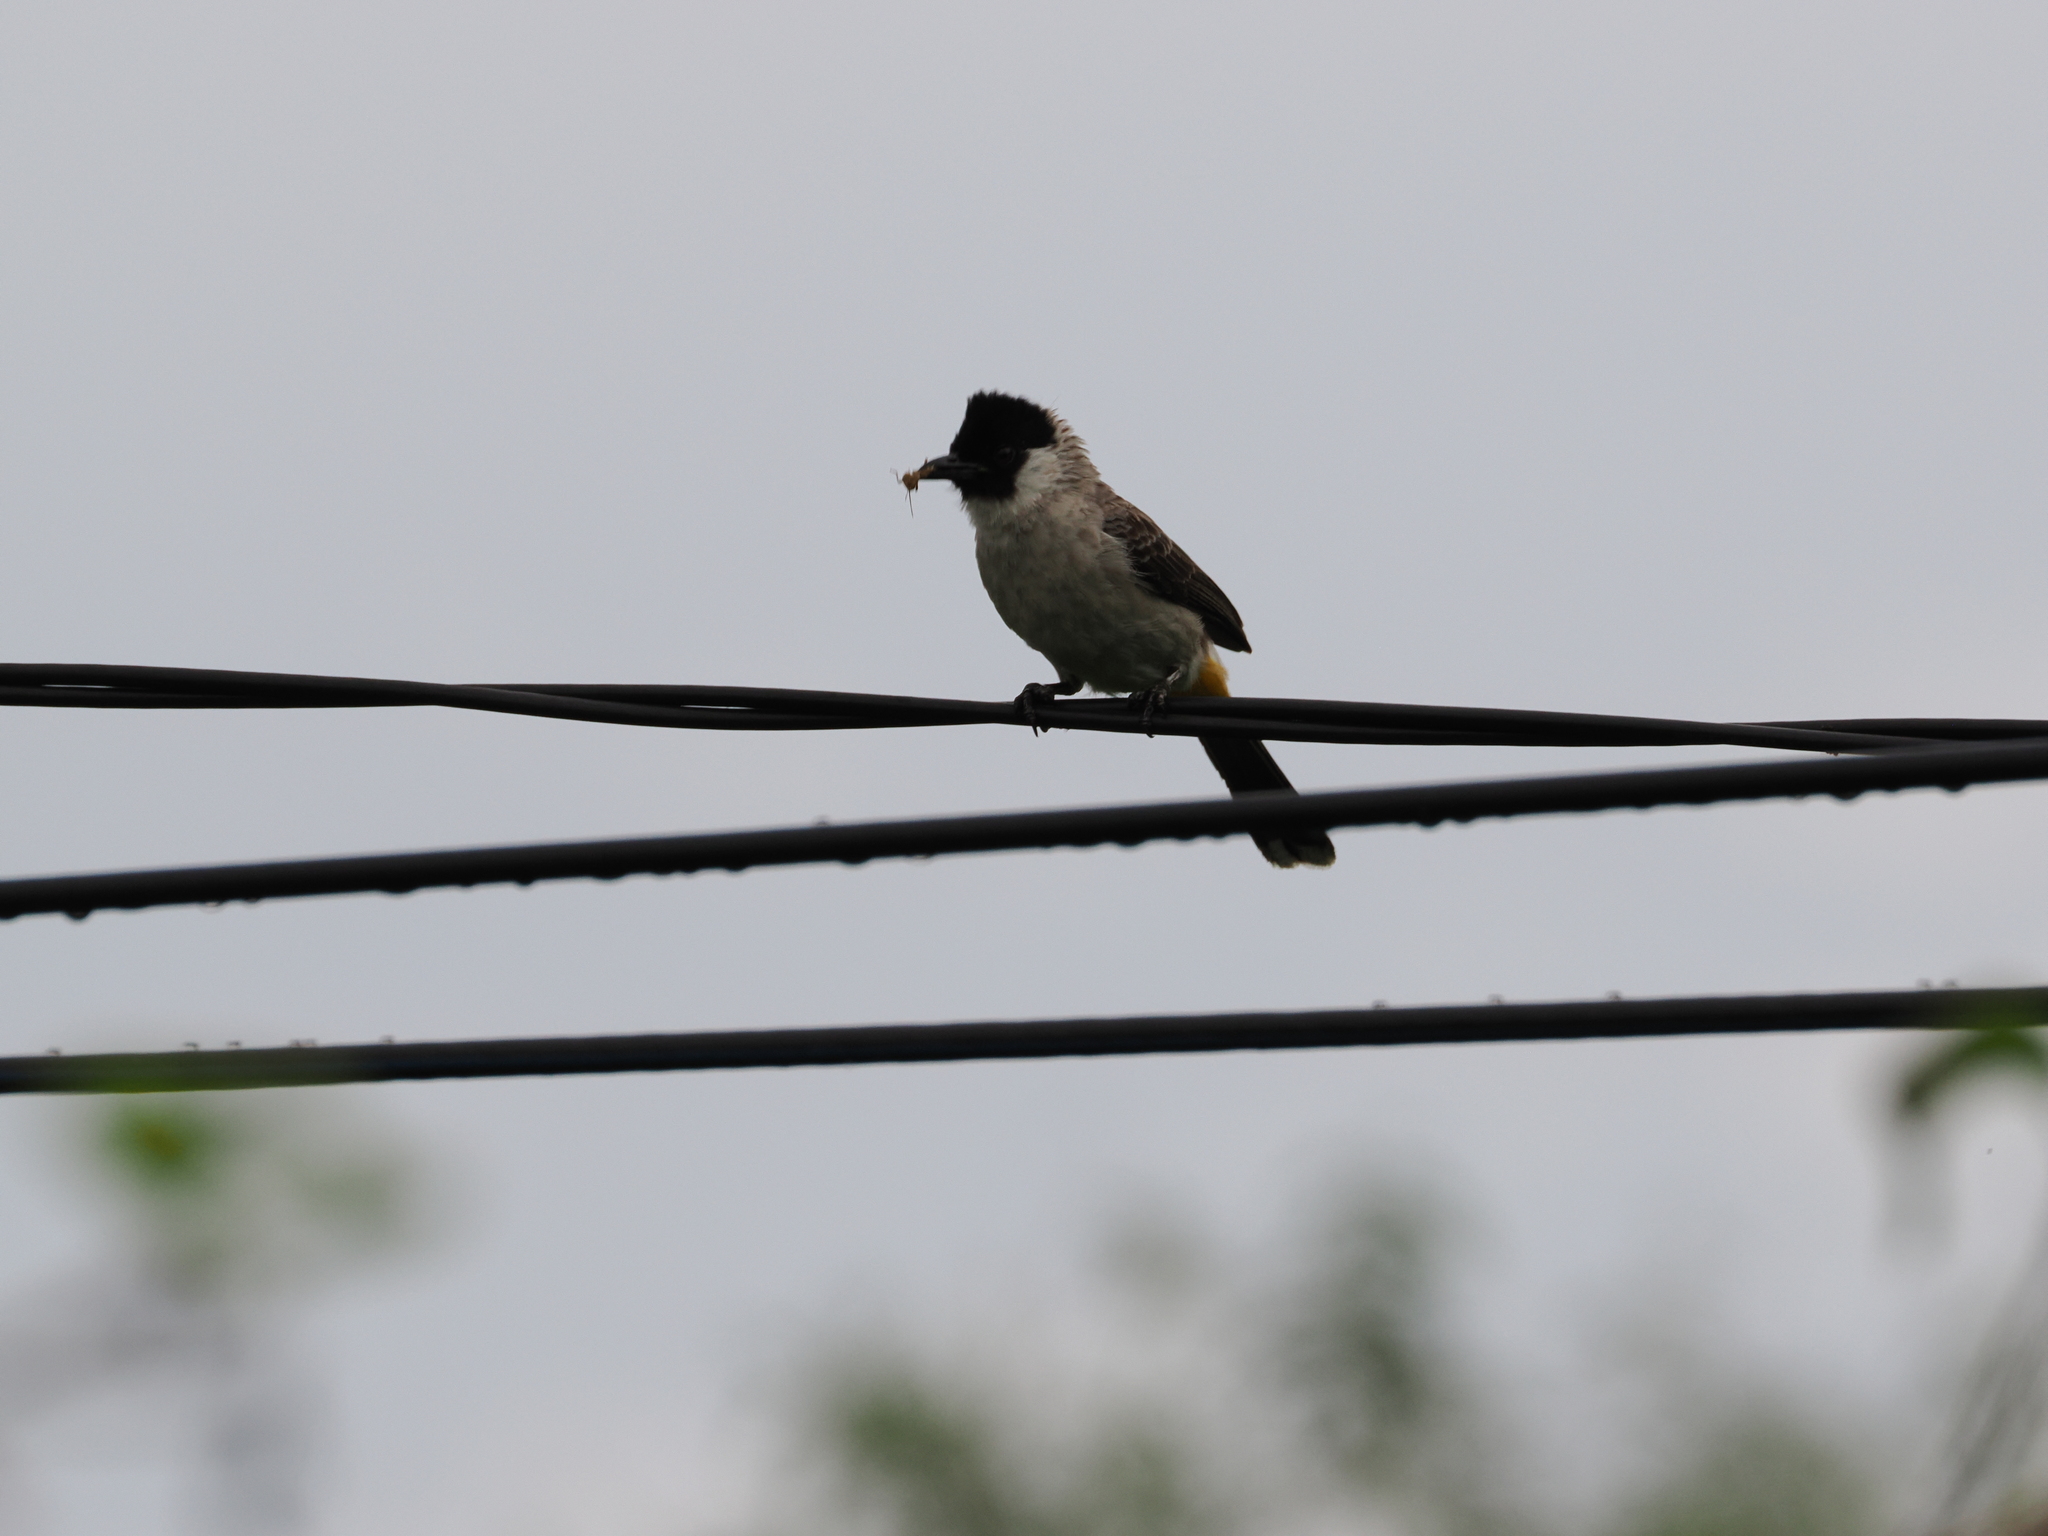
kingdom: Animalia
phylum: Chordata
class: Aves
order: Passeriformes
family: Pycnonotidae
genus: Pycnonotus
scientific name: Pycnonotus aurigaster
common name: Sooty-headed bulbul
